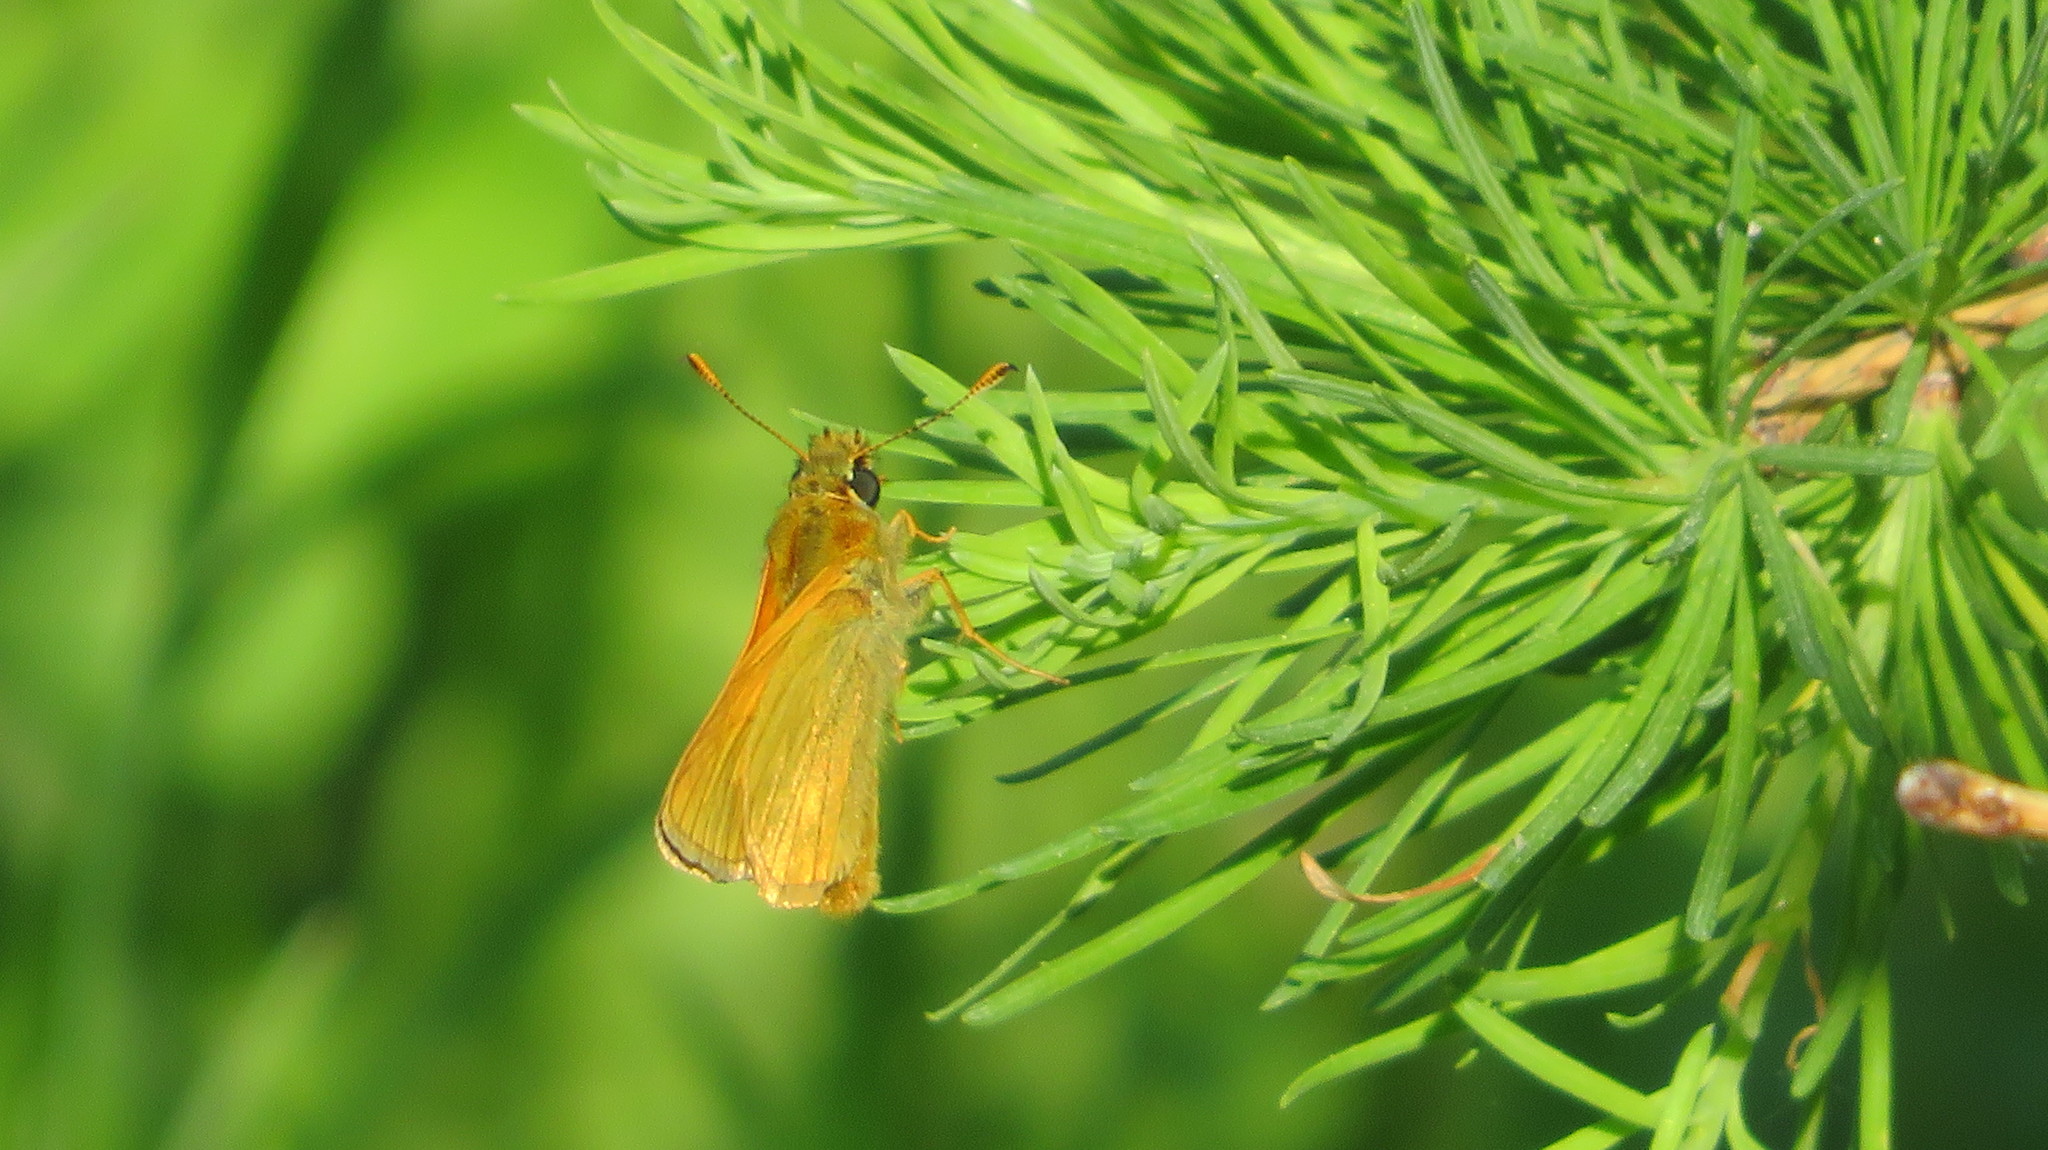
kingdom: Animalia
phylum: Arthropoda
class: Insecta
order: Lepidoptera
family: Hesperiidae
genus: Ochlodes
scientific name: Ochlodes venata
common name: Large skipper
